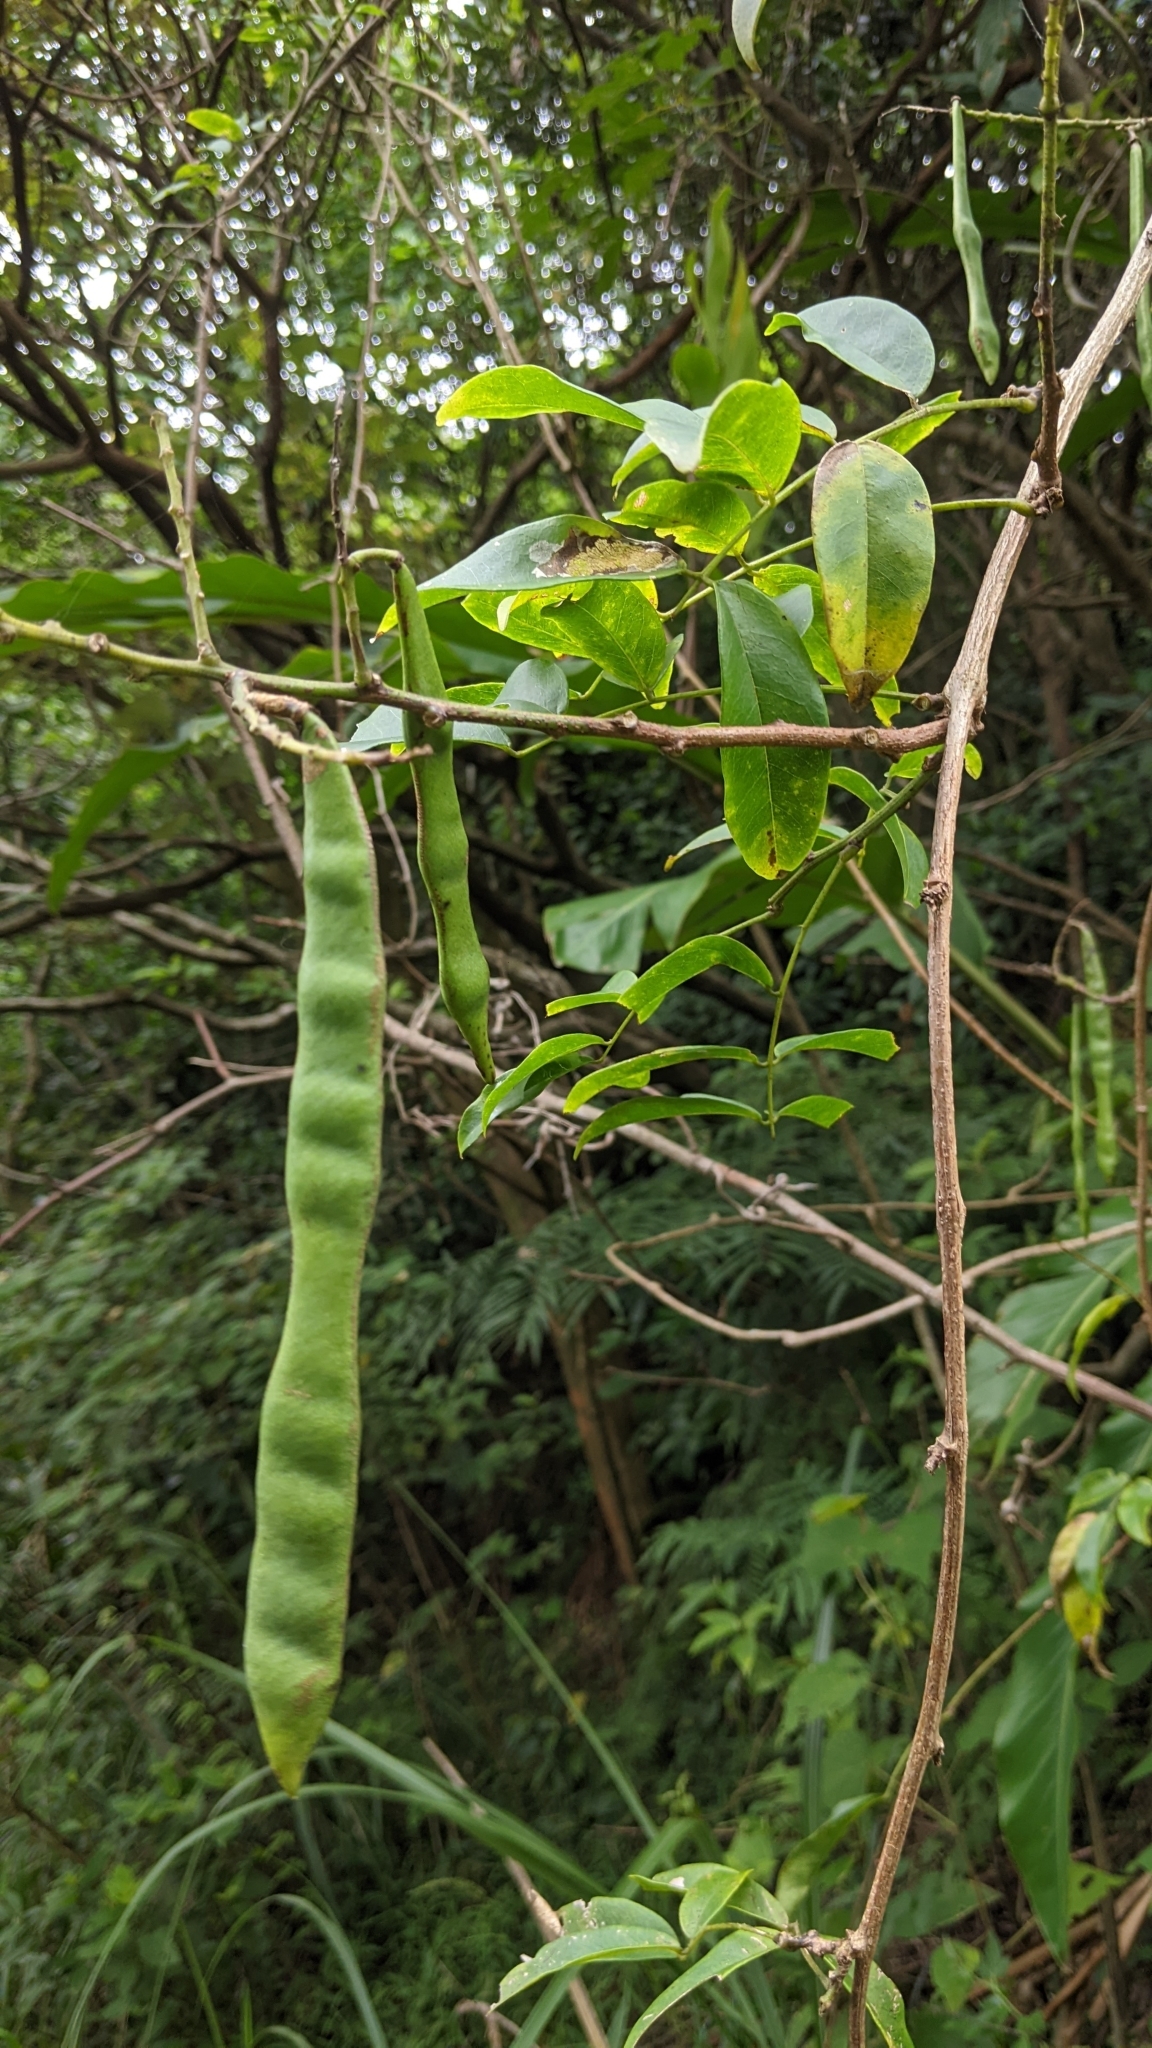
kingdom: Plantae
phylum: Tracheophyta
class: Magnoliopsida
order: Fabales
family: Fabaceae
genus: Wisteriopsis
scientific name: Wisteriopsis reticulata
